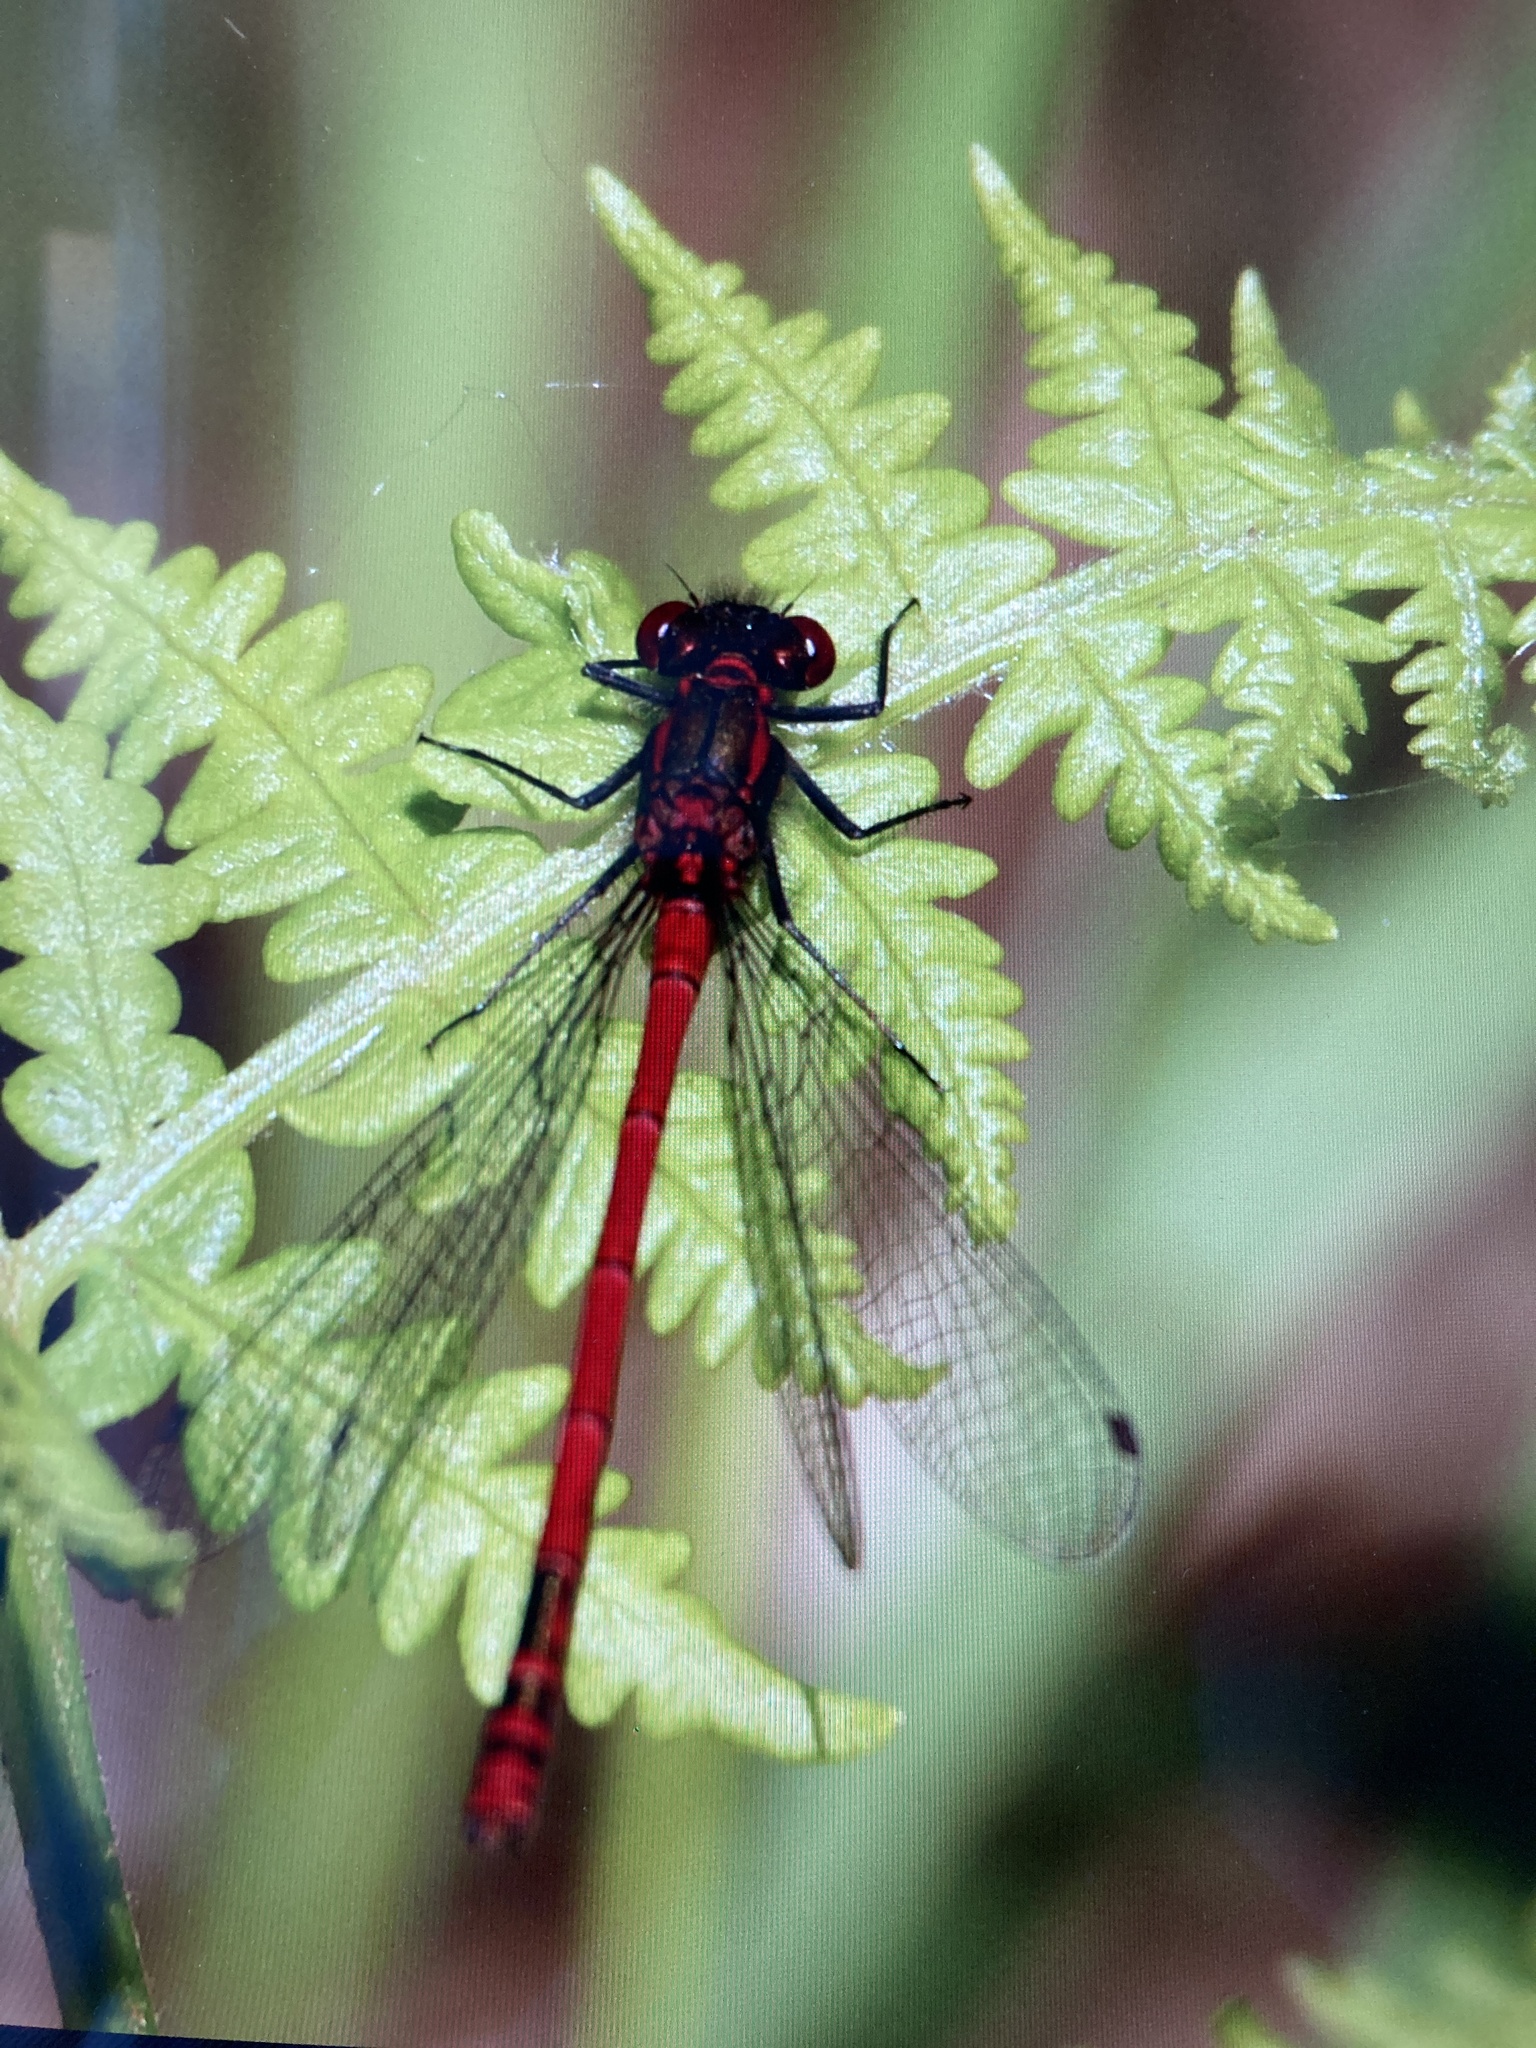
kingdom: Animalia
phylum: Arthropoda
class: Insecta
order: Odonata
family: Coenagrionidae
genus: Pyrrhosoma
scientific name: Pyrrhosoma nymphula
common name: Large red damsel
